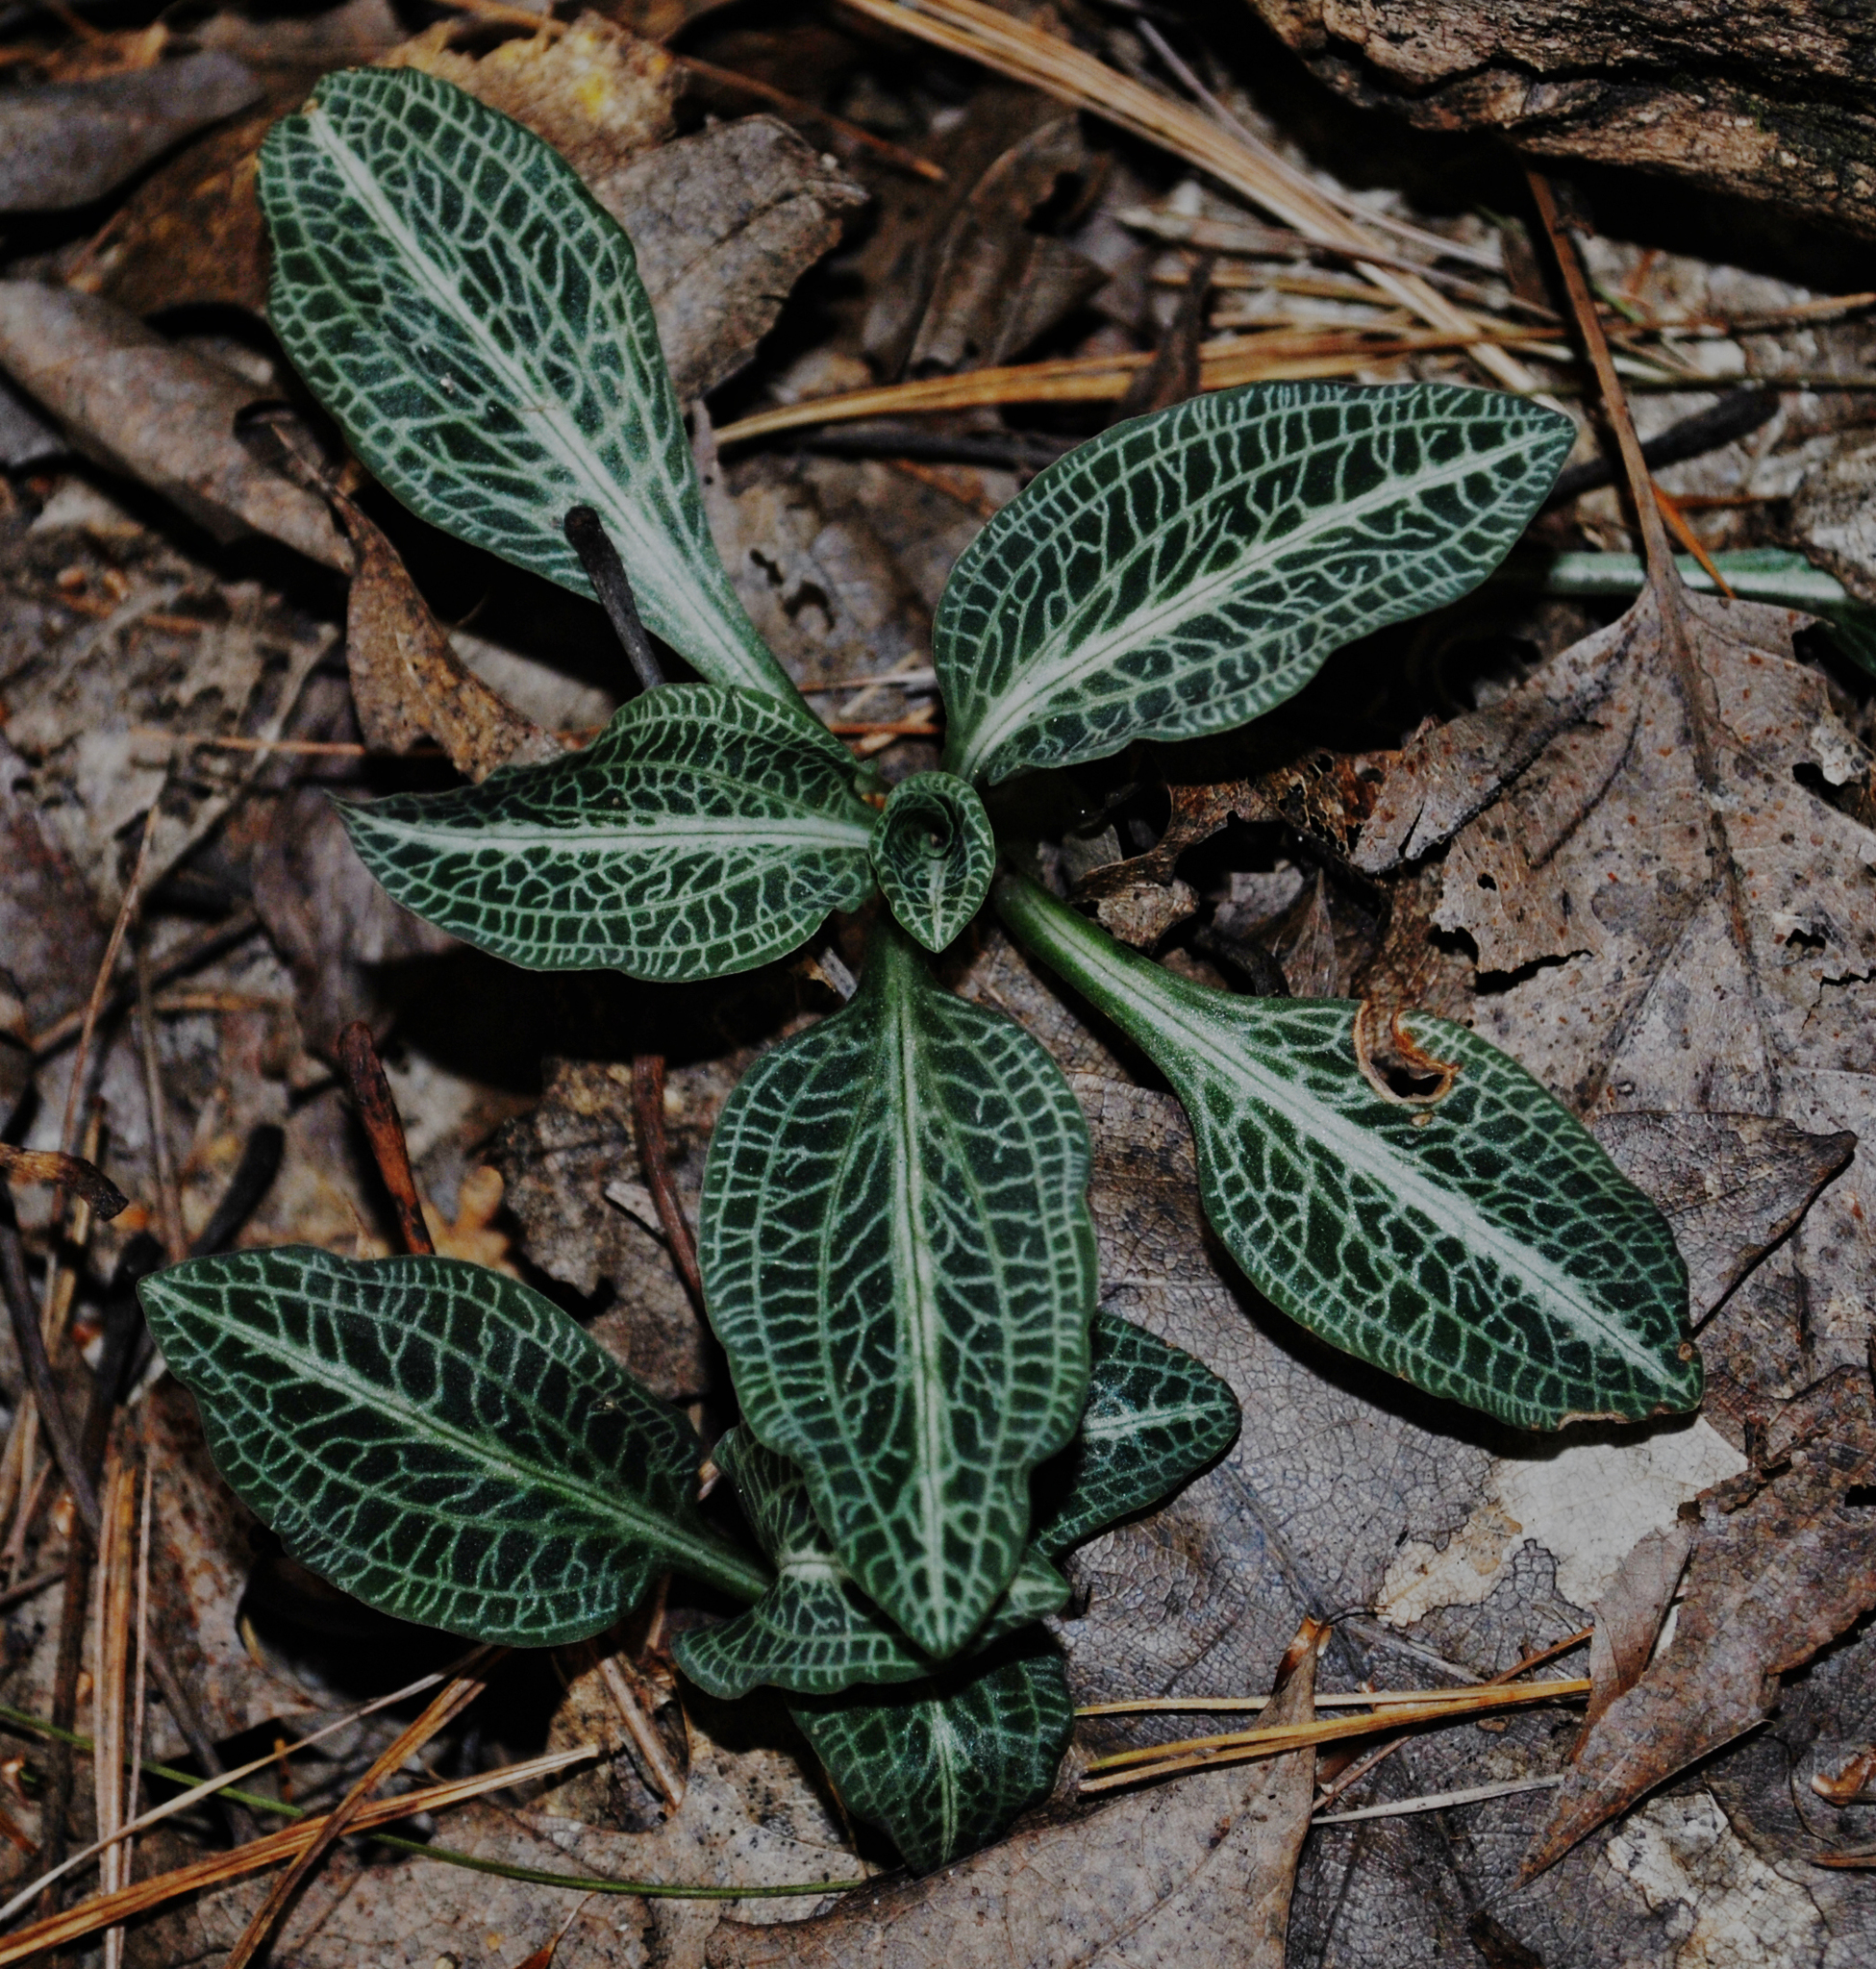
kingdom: Plantae
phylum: Tracheophyta
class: Liliopsida
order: Asparagales
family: Orchidaceae
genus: Goodyera
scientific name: Goodyera pubescens
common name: Downy rattlesnake-plantain
